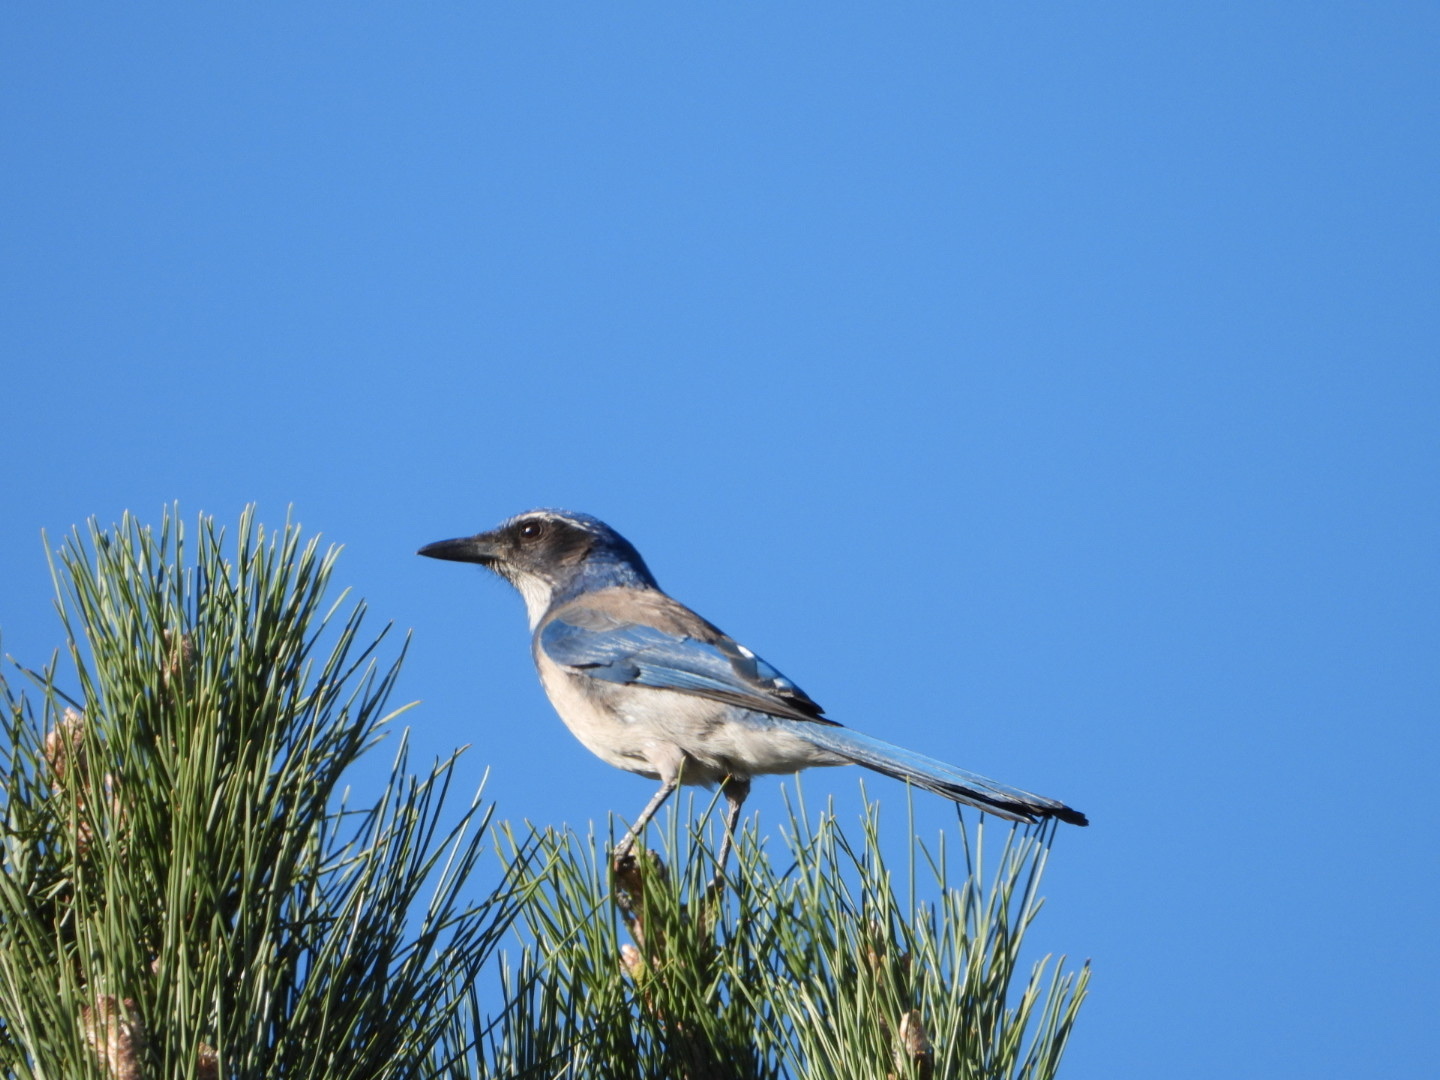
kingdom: Animalia
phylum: Chordata
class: Aves
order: Passeriformes
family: Corvidae
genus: Aphelocoma
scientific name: Aphelocoma californica
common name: California scrub-jay
